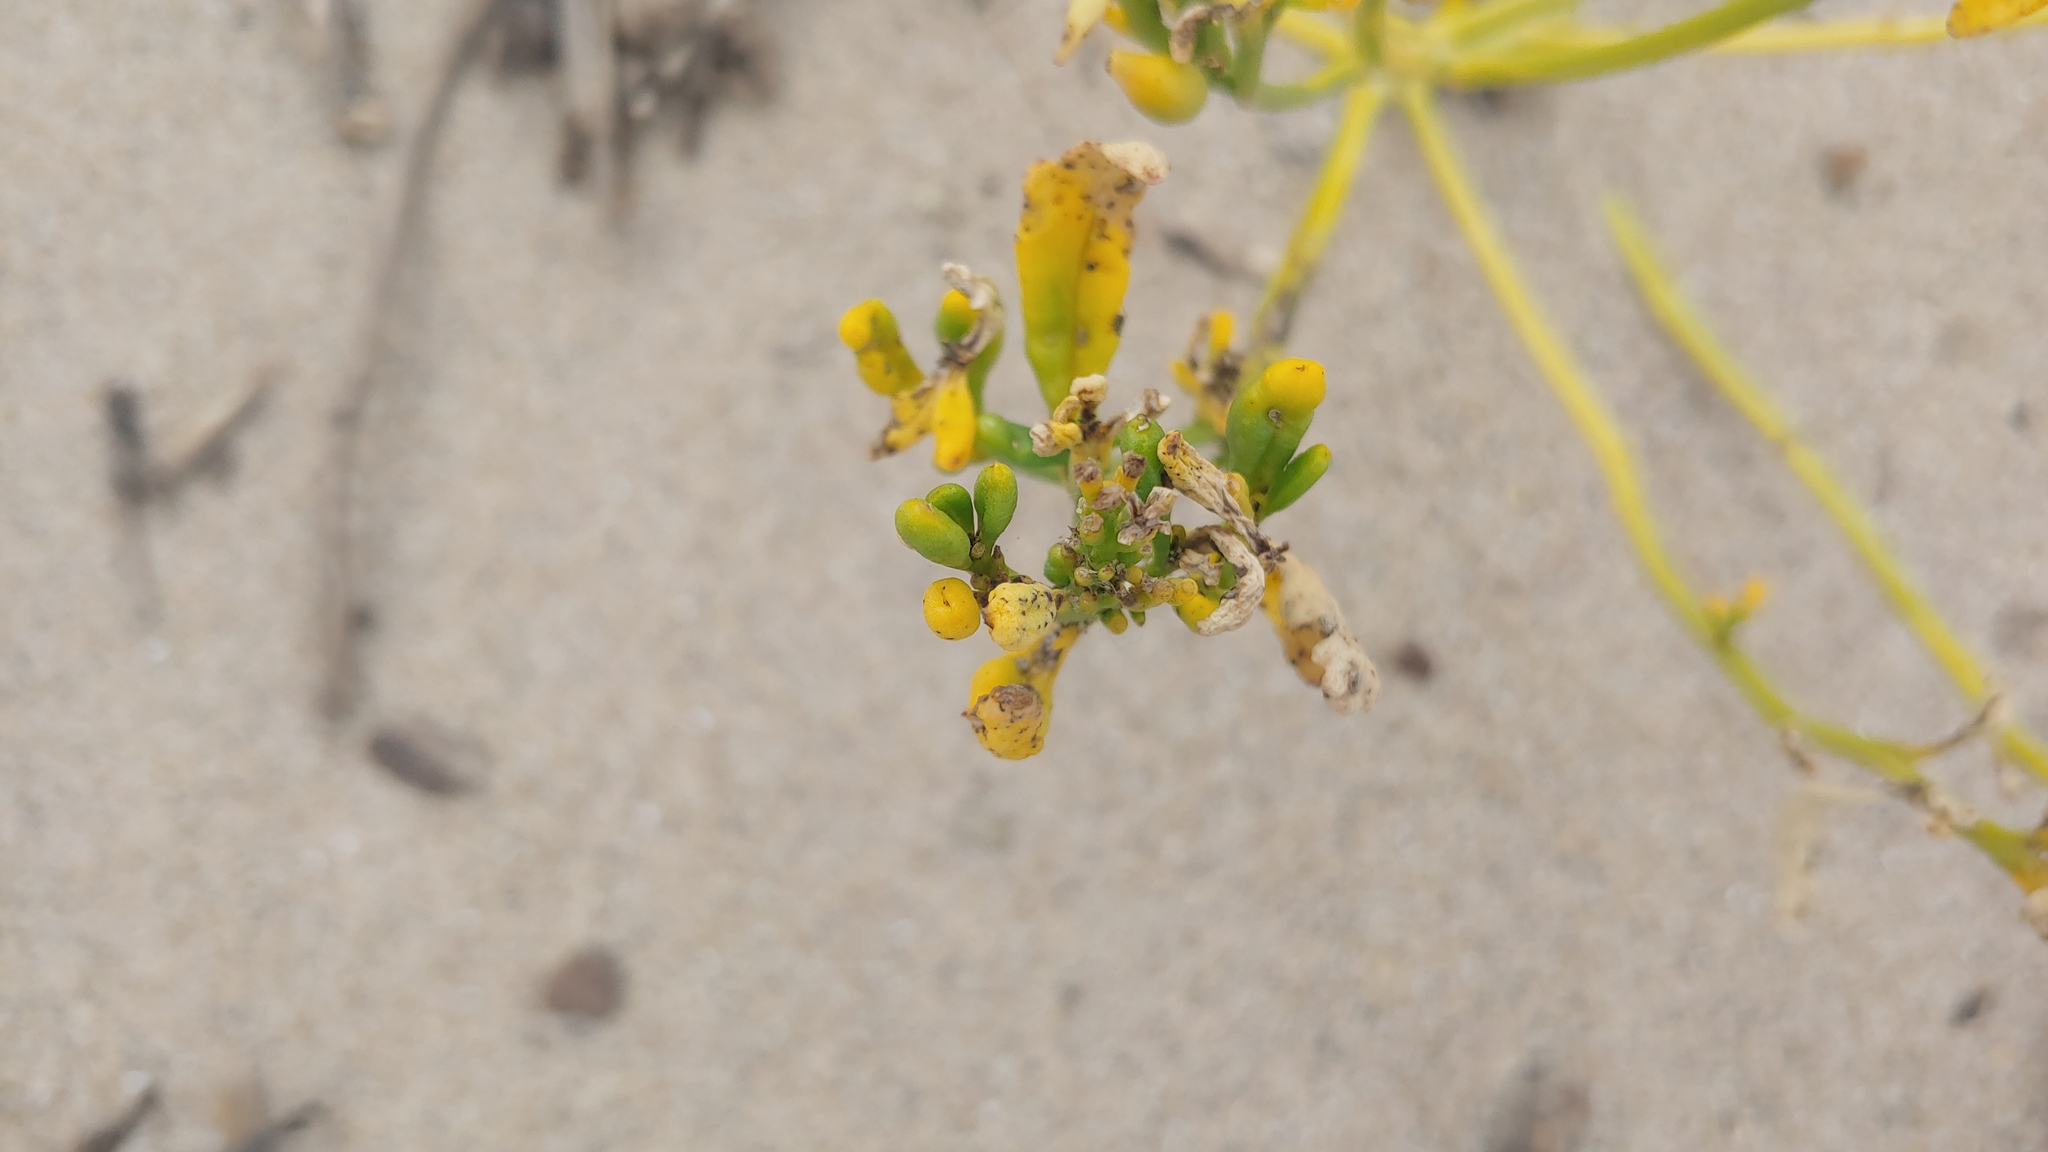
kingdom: Plantae
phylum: Tracheophyta
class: Magnoliopsida
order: Brassicales
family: Brassicaceae
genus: Cakile
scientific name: Cakile edentula
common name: American sea rocket
